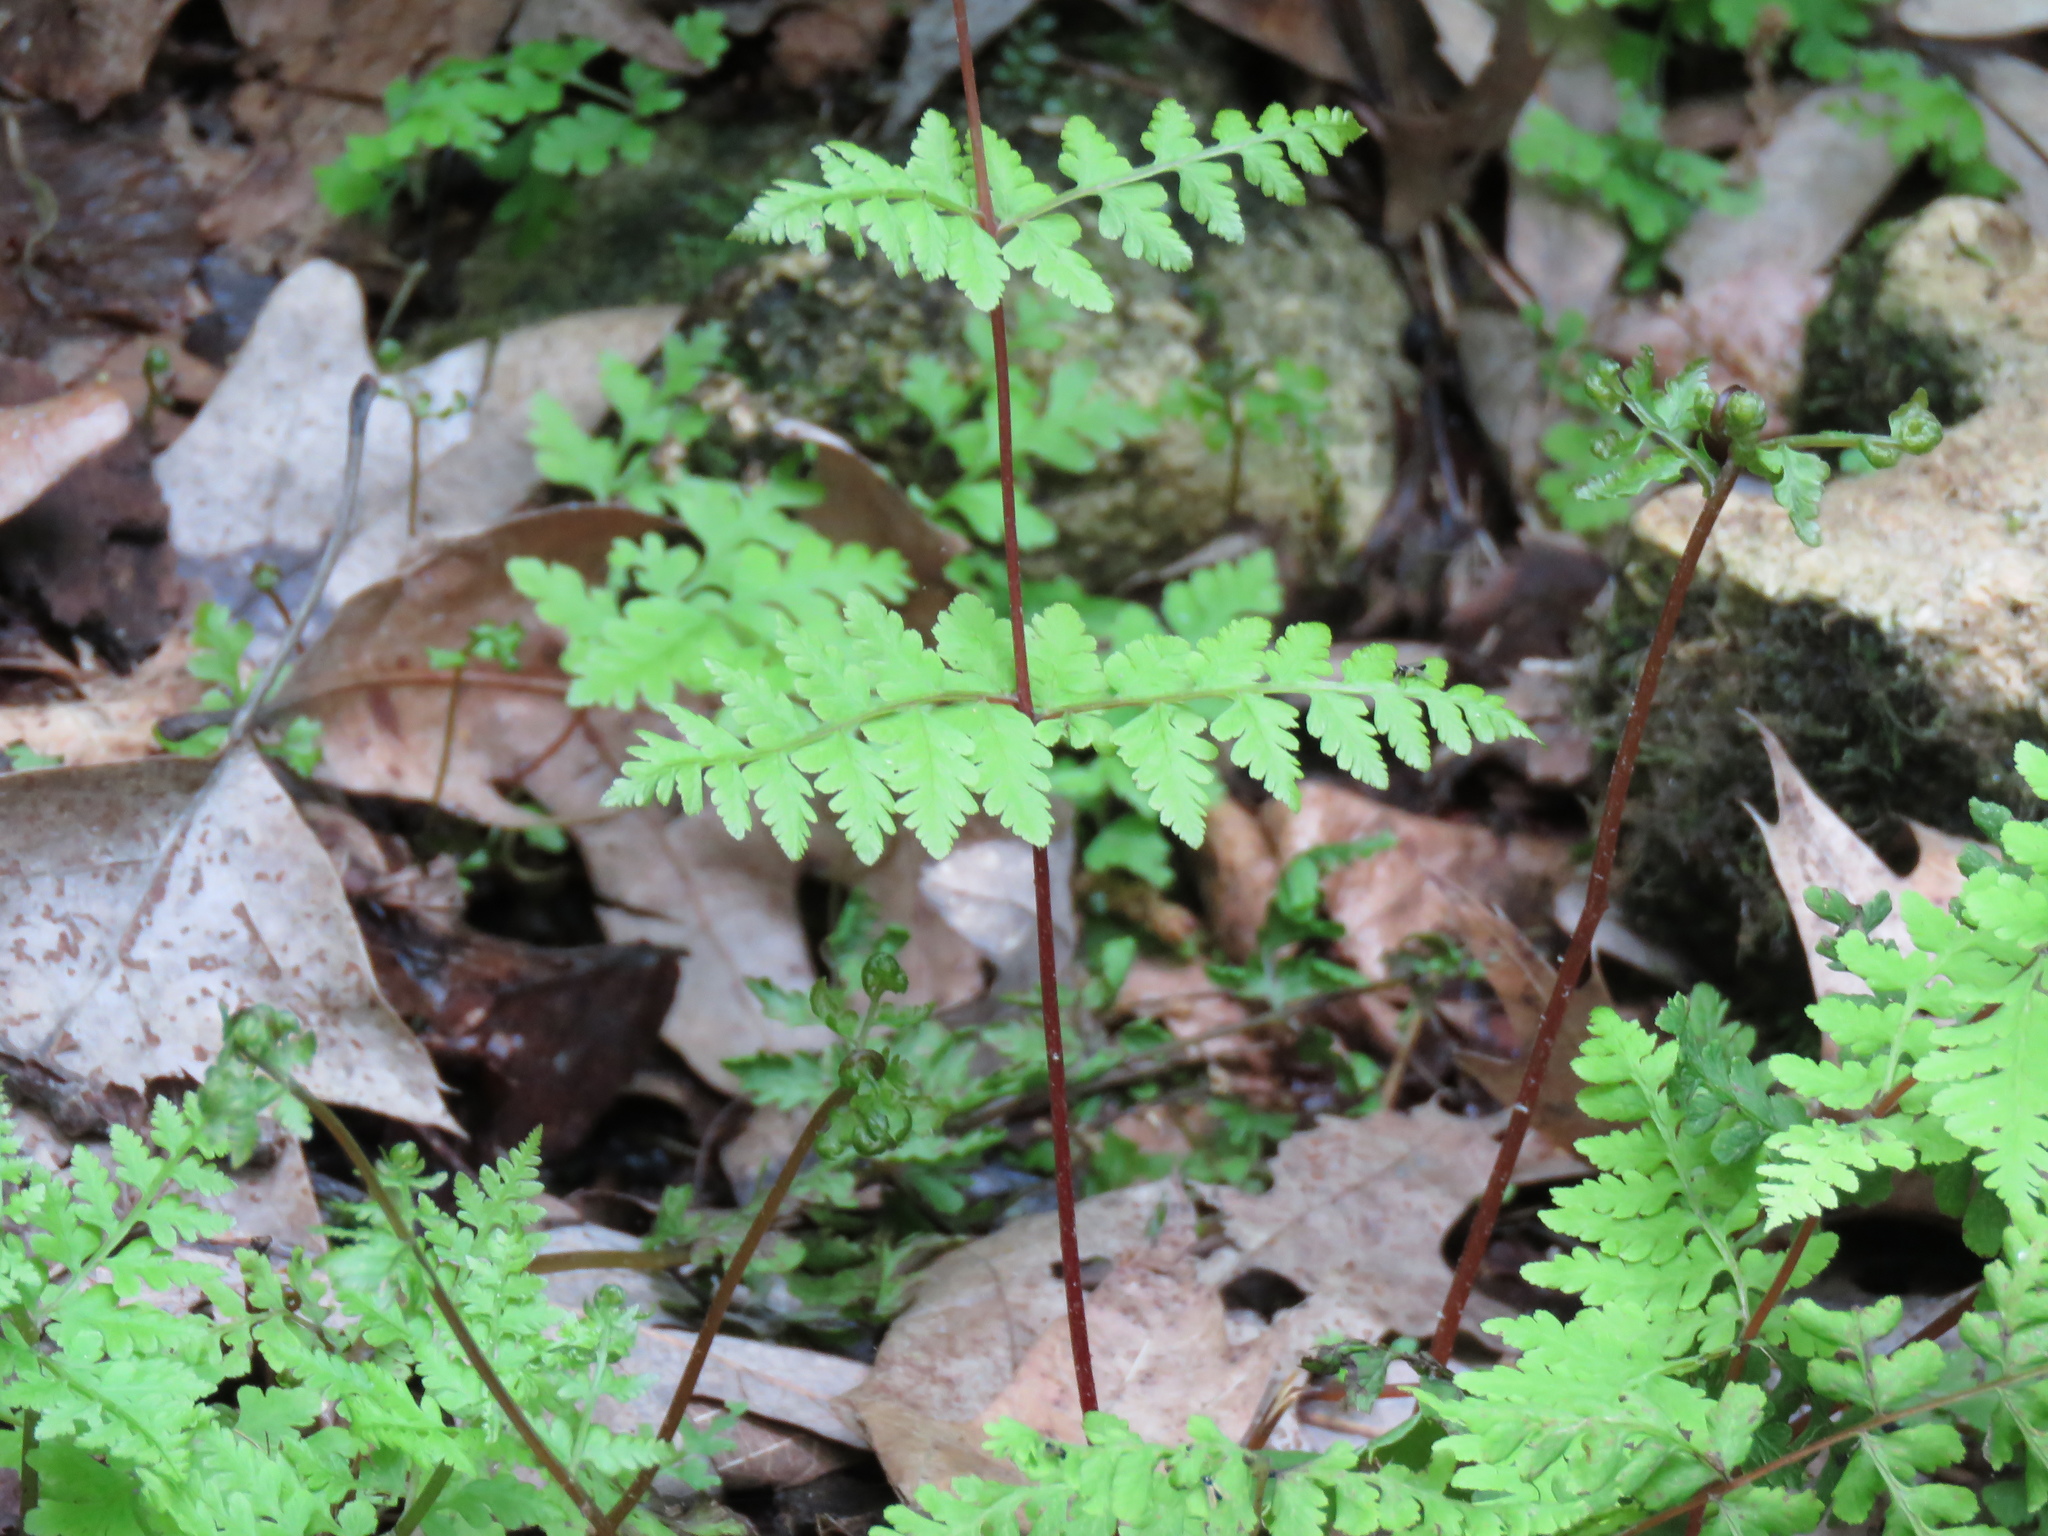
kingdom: Plantae
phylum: Tracheophyta
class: Polypodiopsida
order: Polypodiales
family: Cystopteridaceae
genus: Cystopteris
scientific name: Cystopteris bulbifera
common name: Bulblet bladder fern
